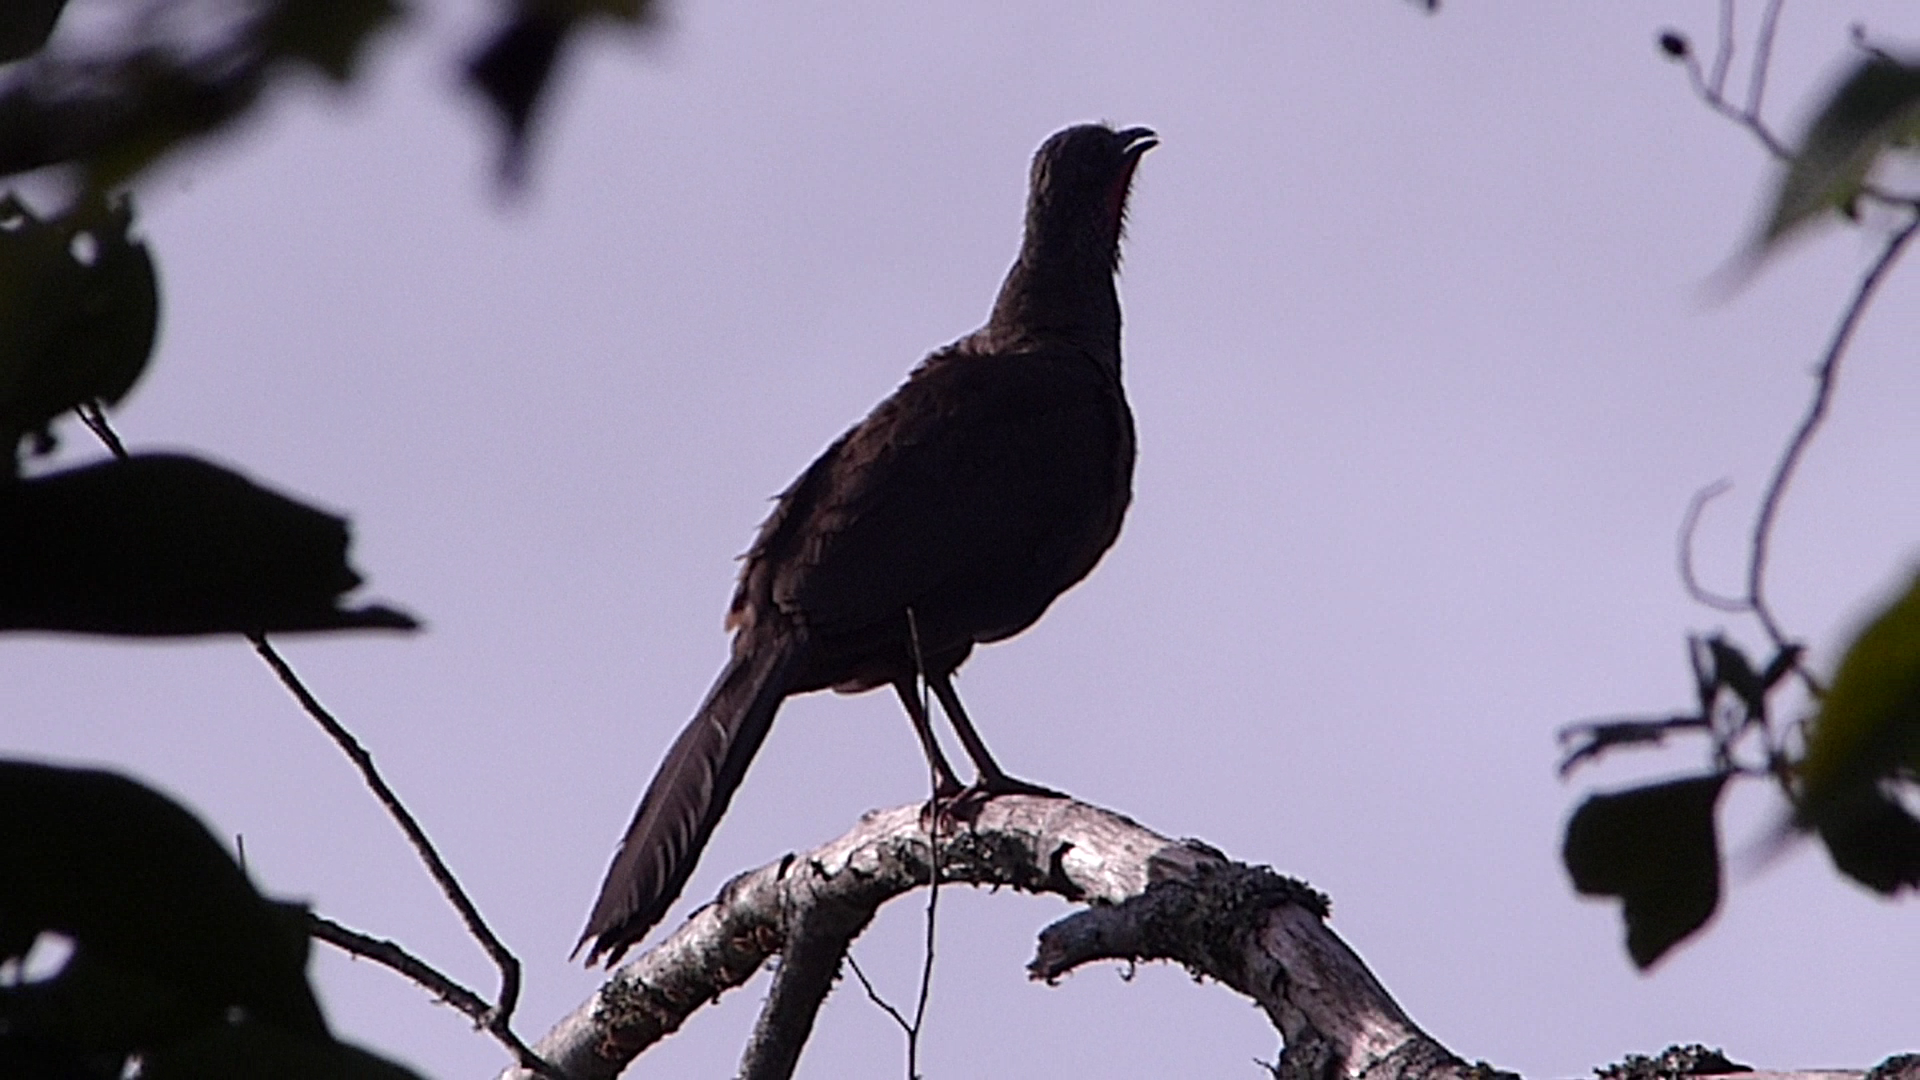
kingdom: Animalia
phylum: Chordata
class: Aves
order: Galliformes
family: Cracidae
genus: Ortalis
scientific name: Ortalis columbiana
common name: Colombian chachalaca
